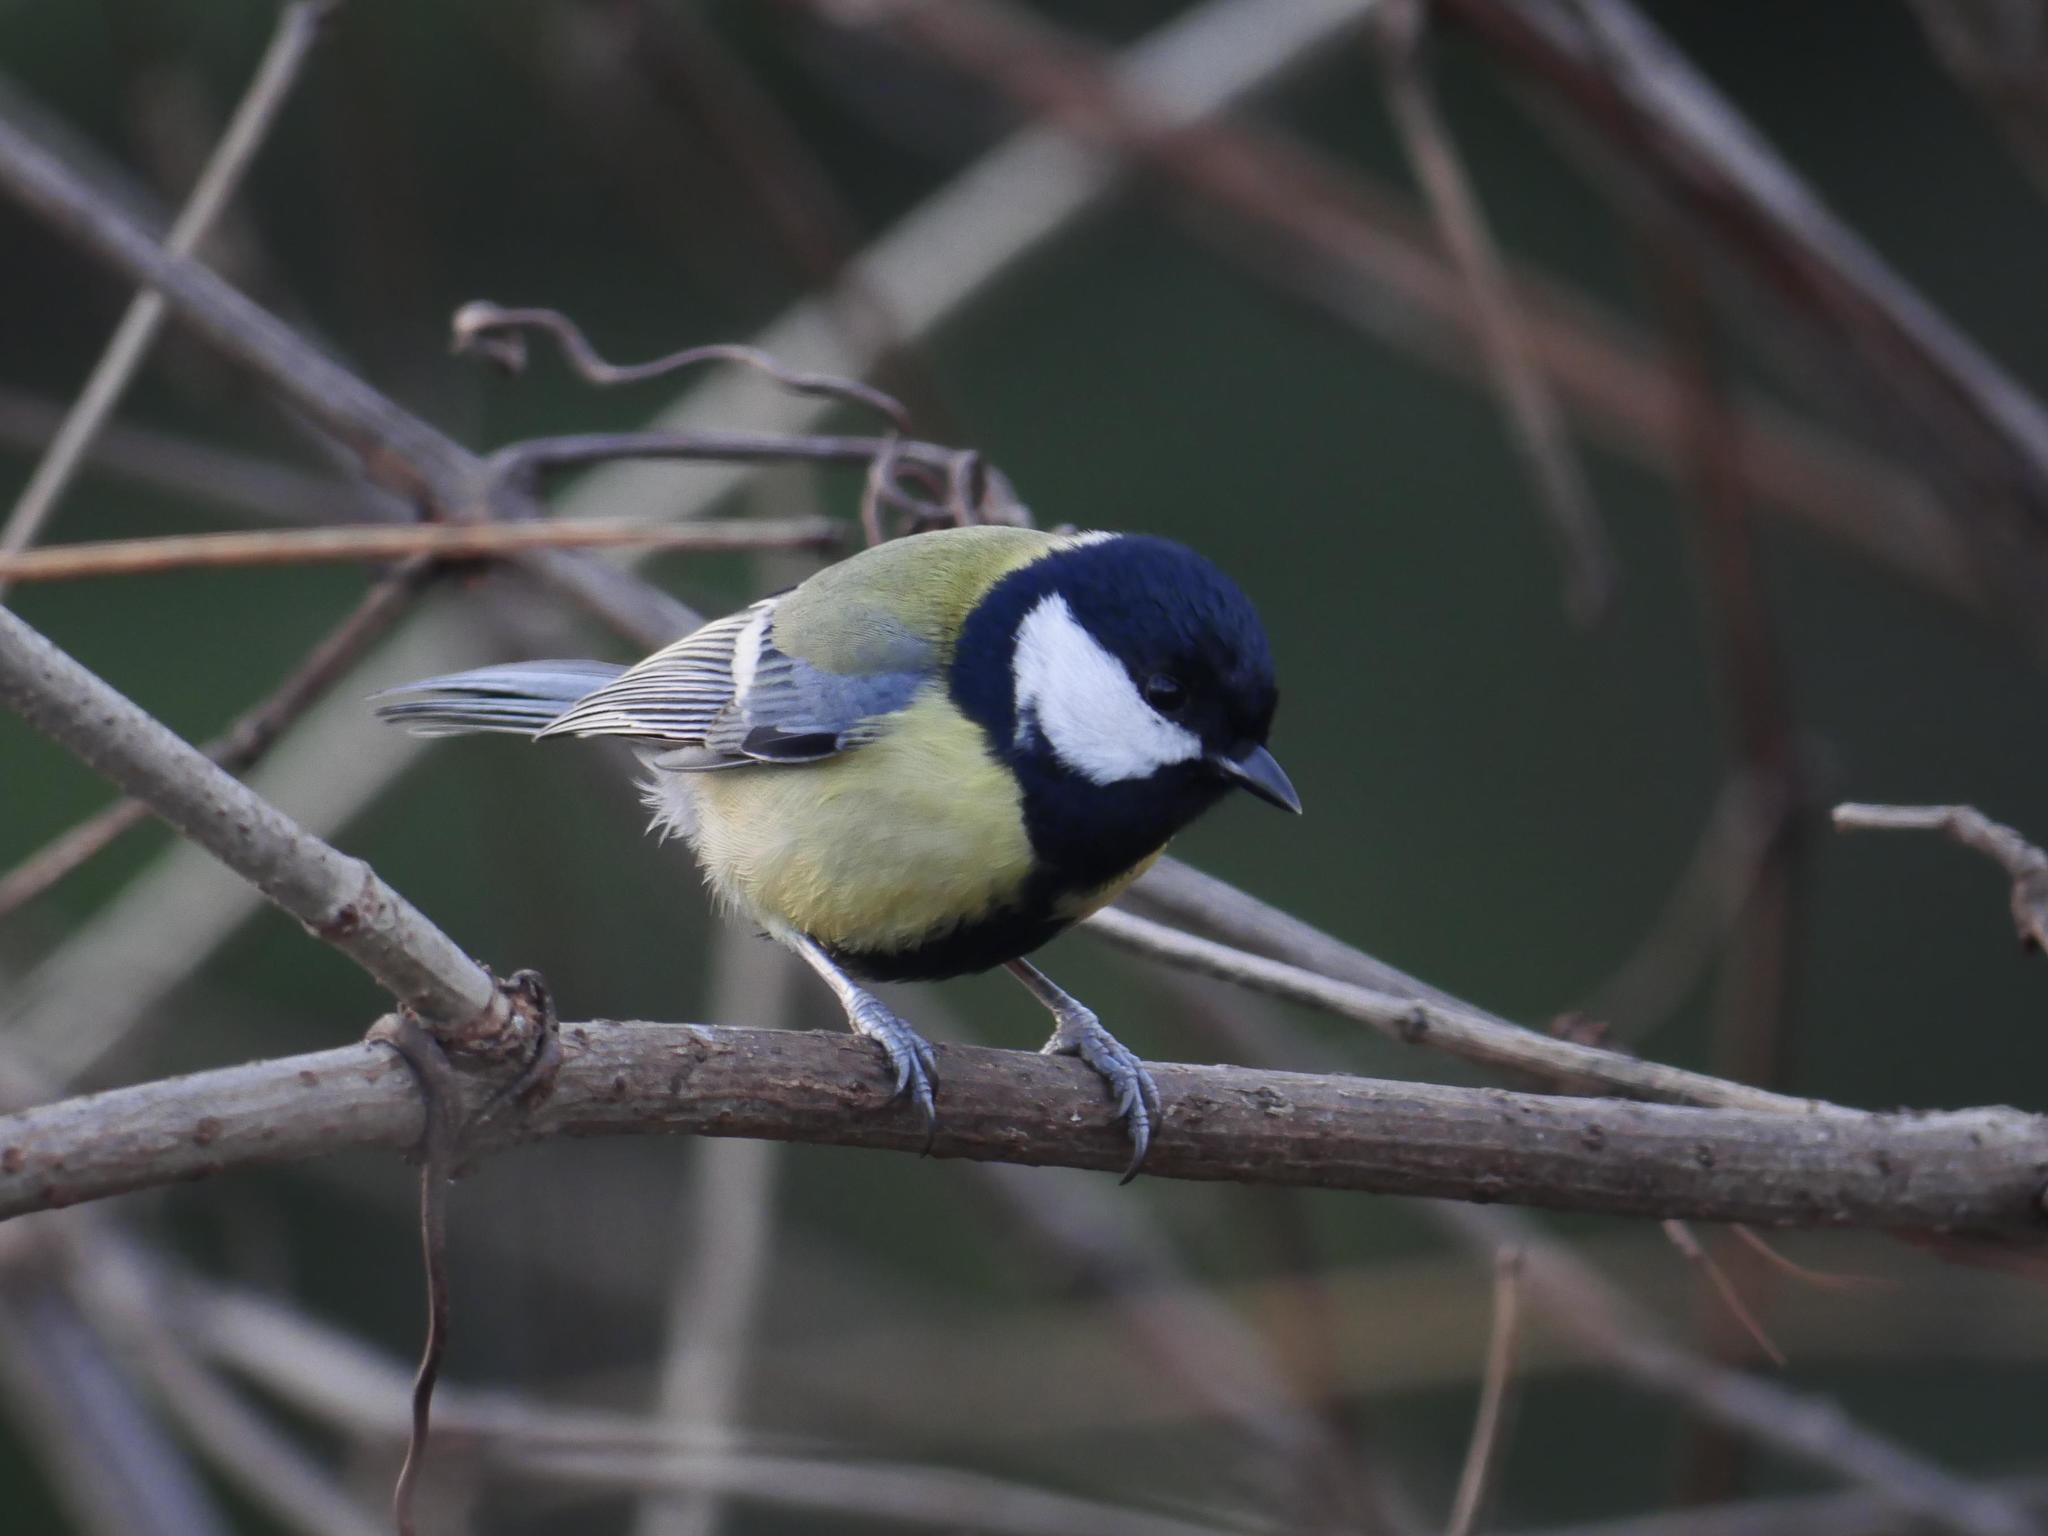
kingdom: Animalia
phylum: Chordata
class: Aves
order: Passeriformes
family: Paridae
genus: Parus
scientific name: Parus major
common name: Great tit
